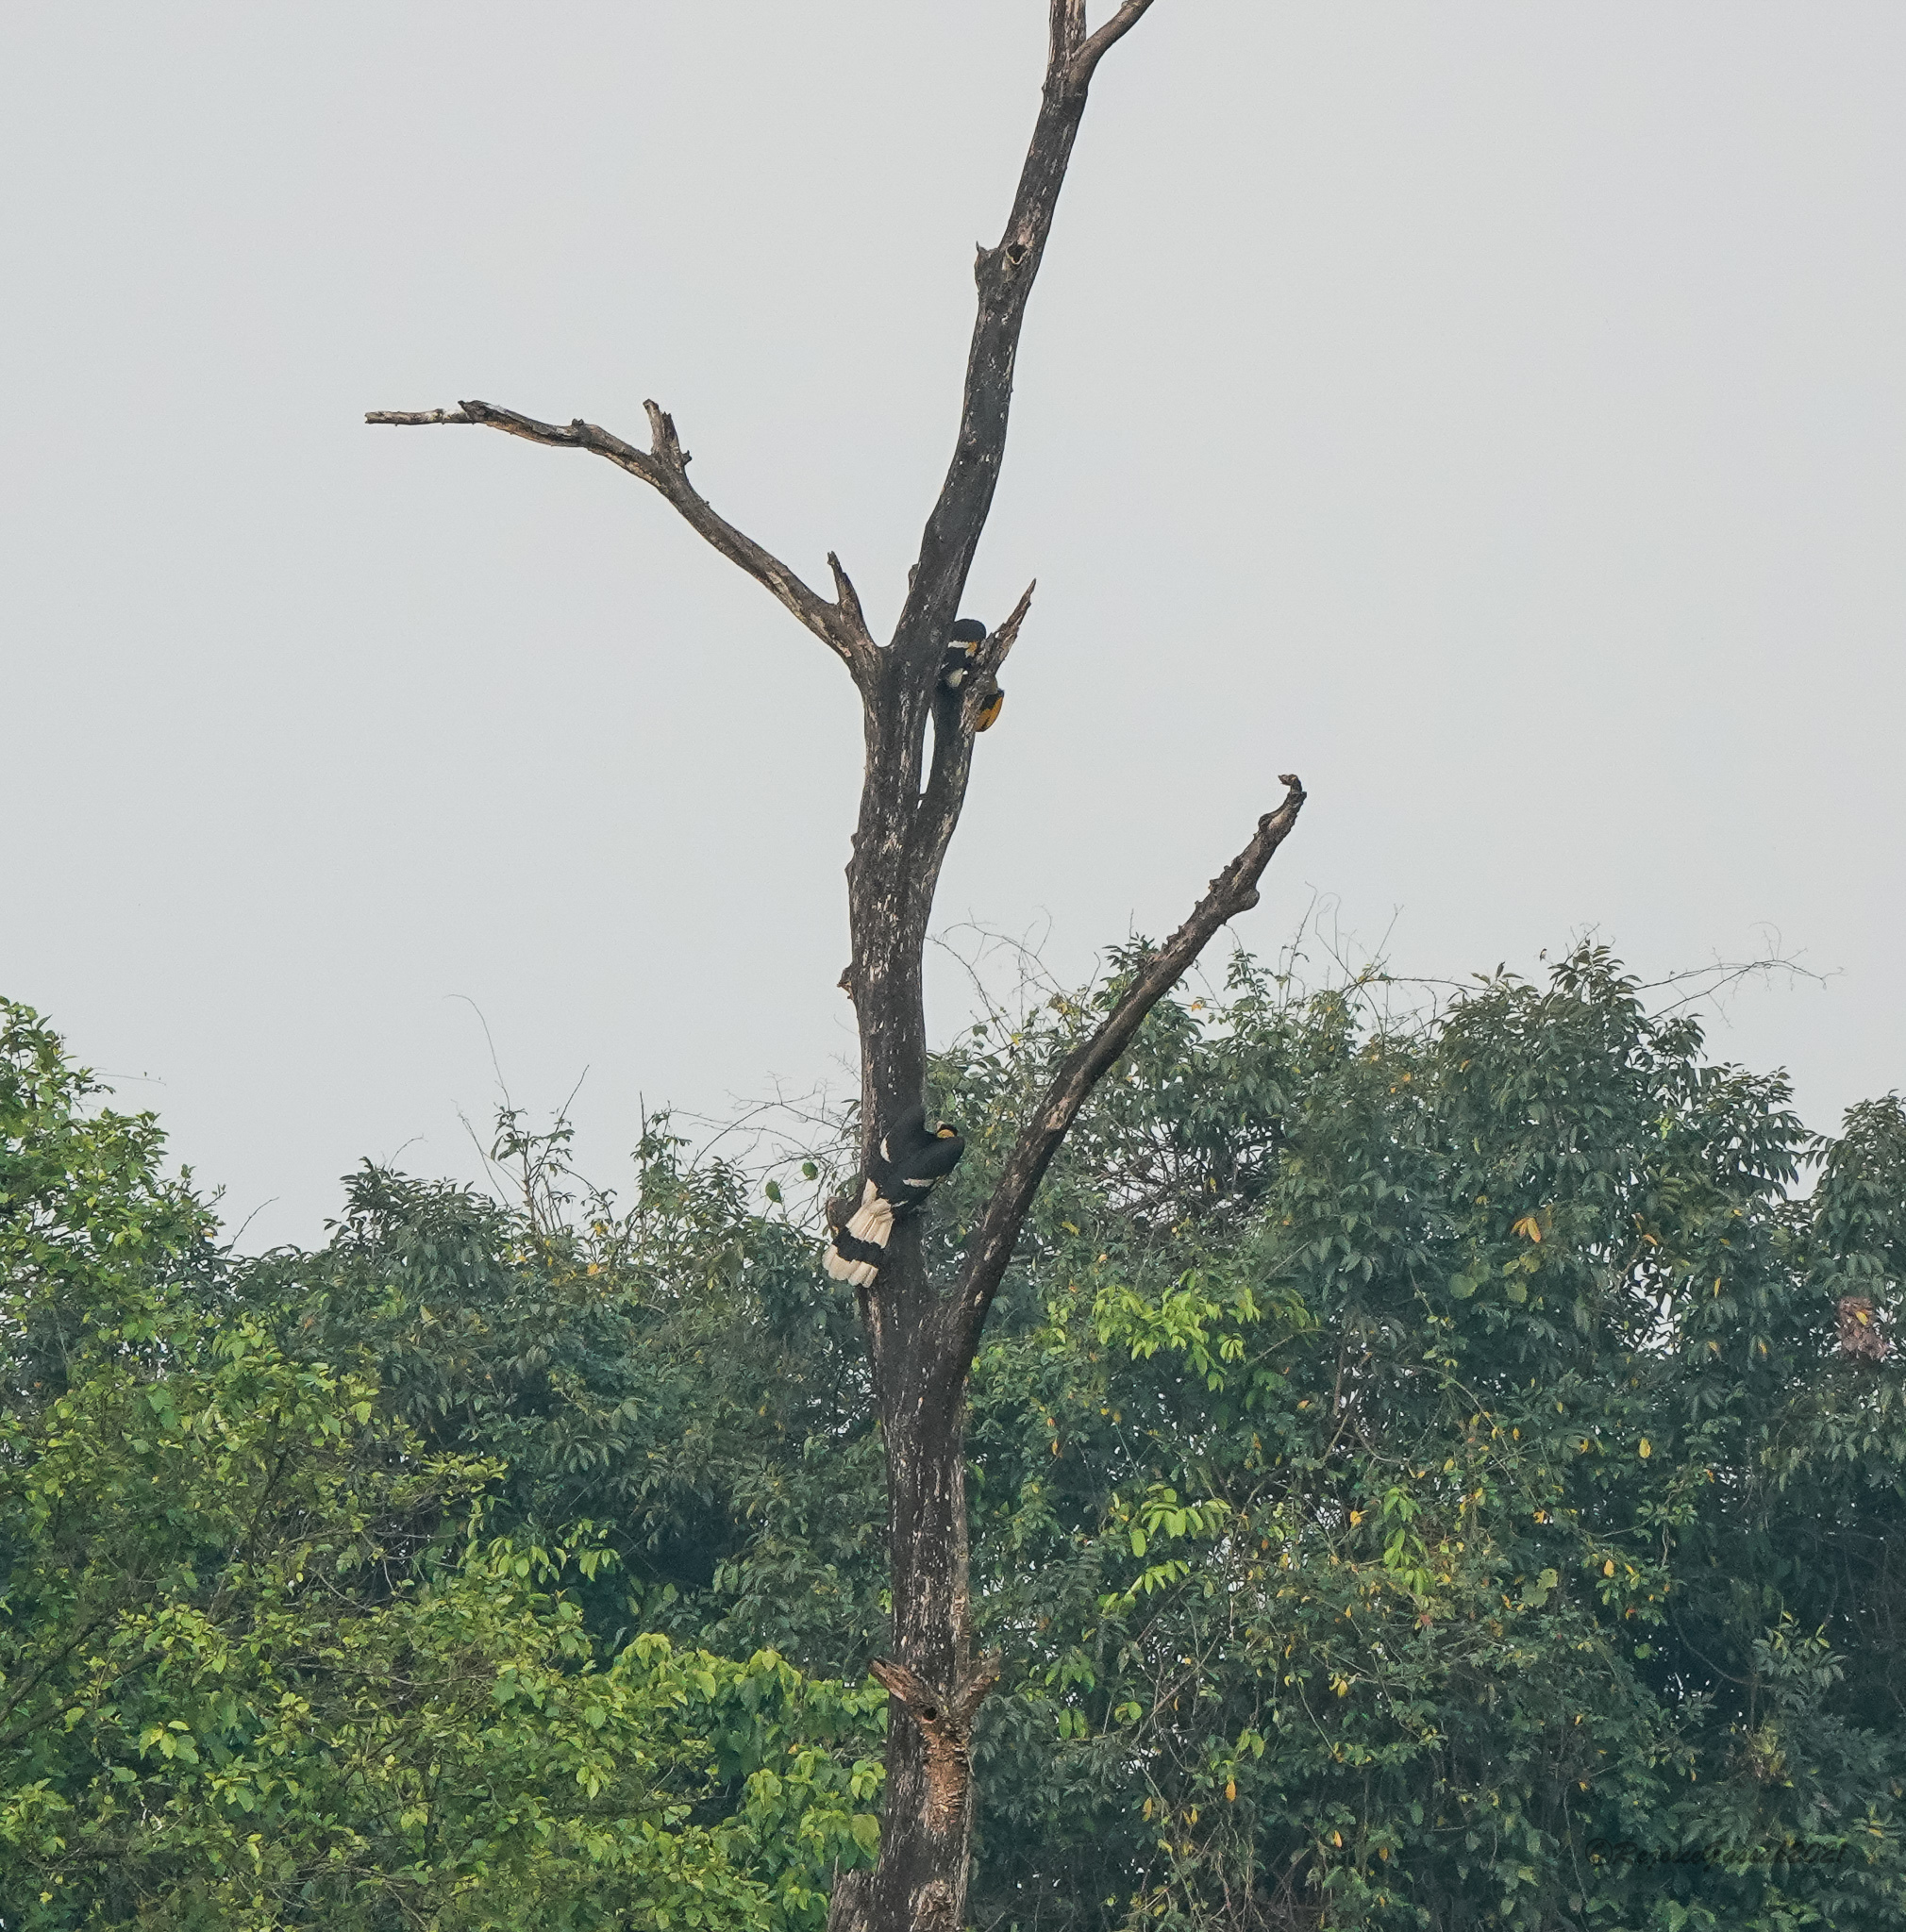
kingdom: Animalia
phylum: Chordata
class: Aves
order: Bucerotiformes
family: Bucerotidae
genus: Buceros
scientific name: Buceros bicornis
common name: Great hornbill
